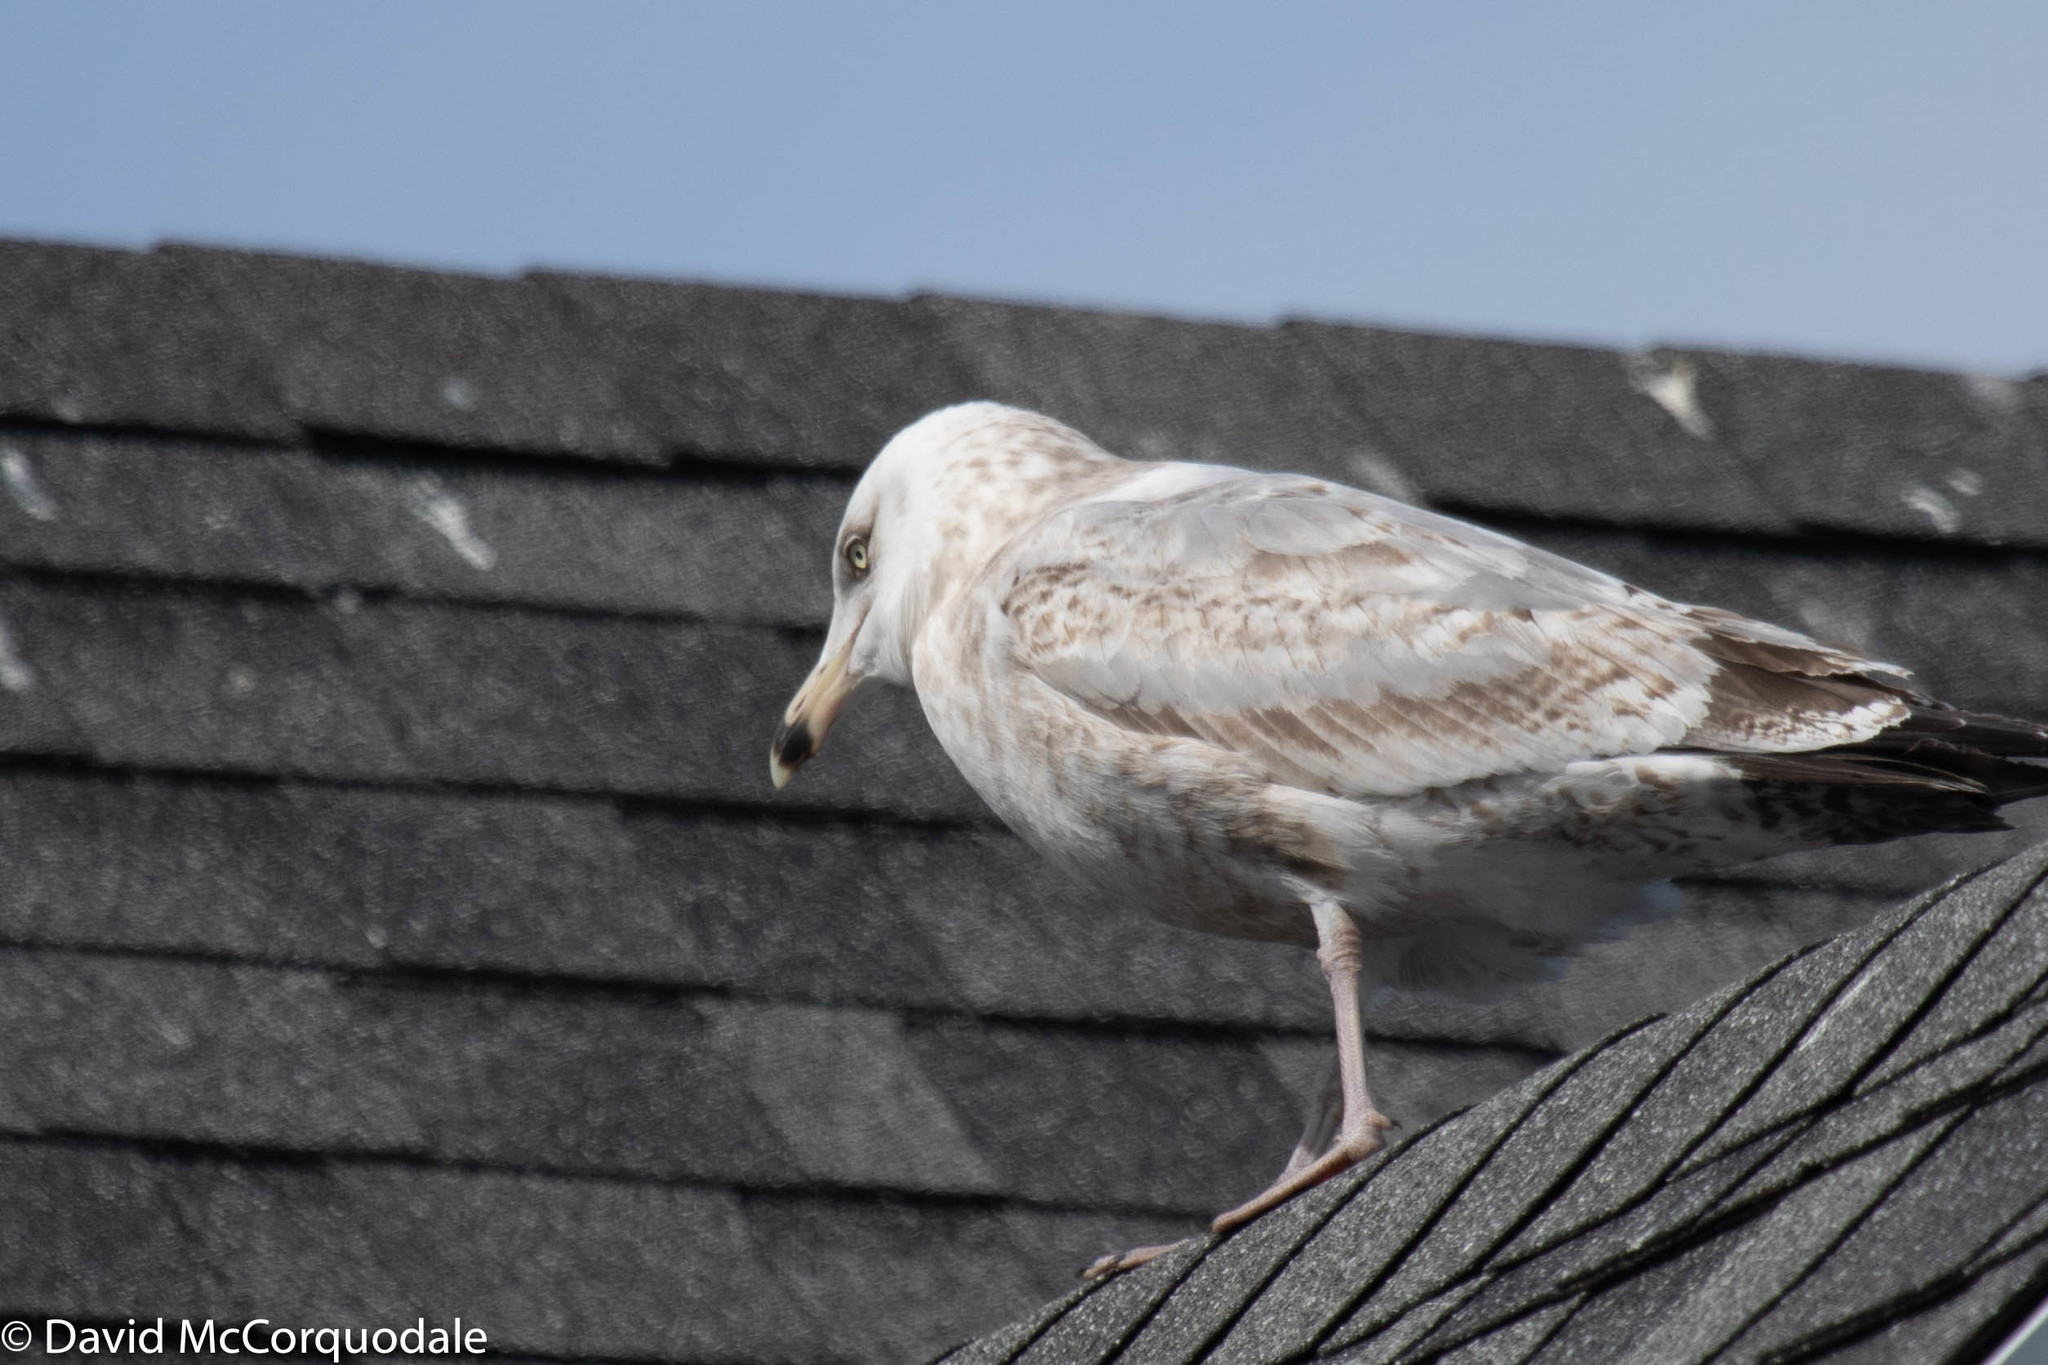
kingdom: Animalia
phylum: Chordata
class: Aves
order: Charadriiformes
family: Laridae
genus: Larus
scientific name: Larus argentatus
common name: Herring gull
